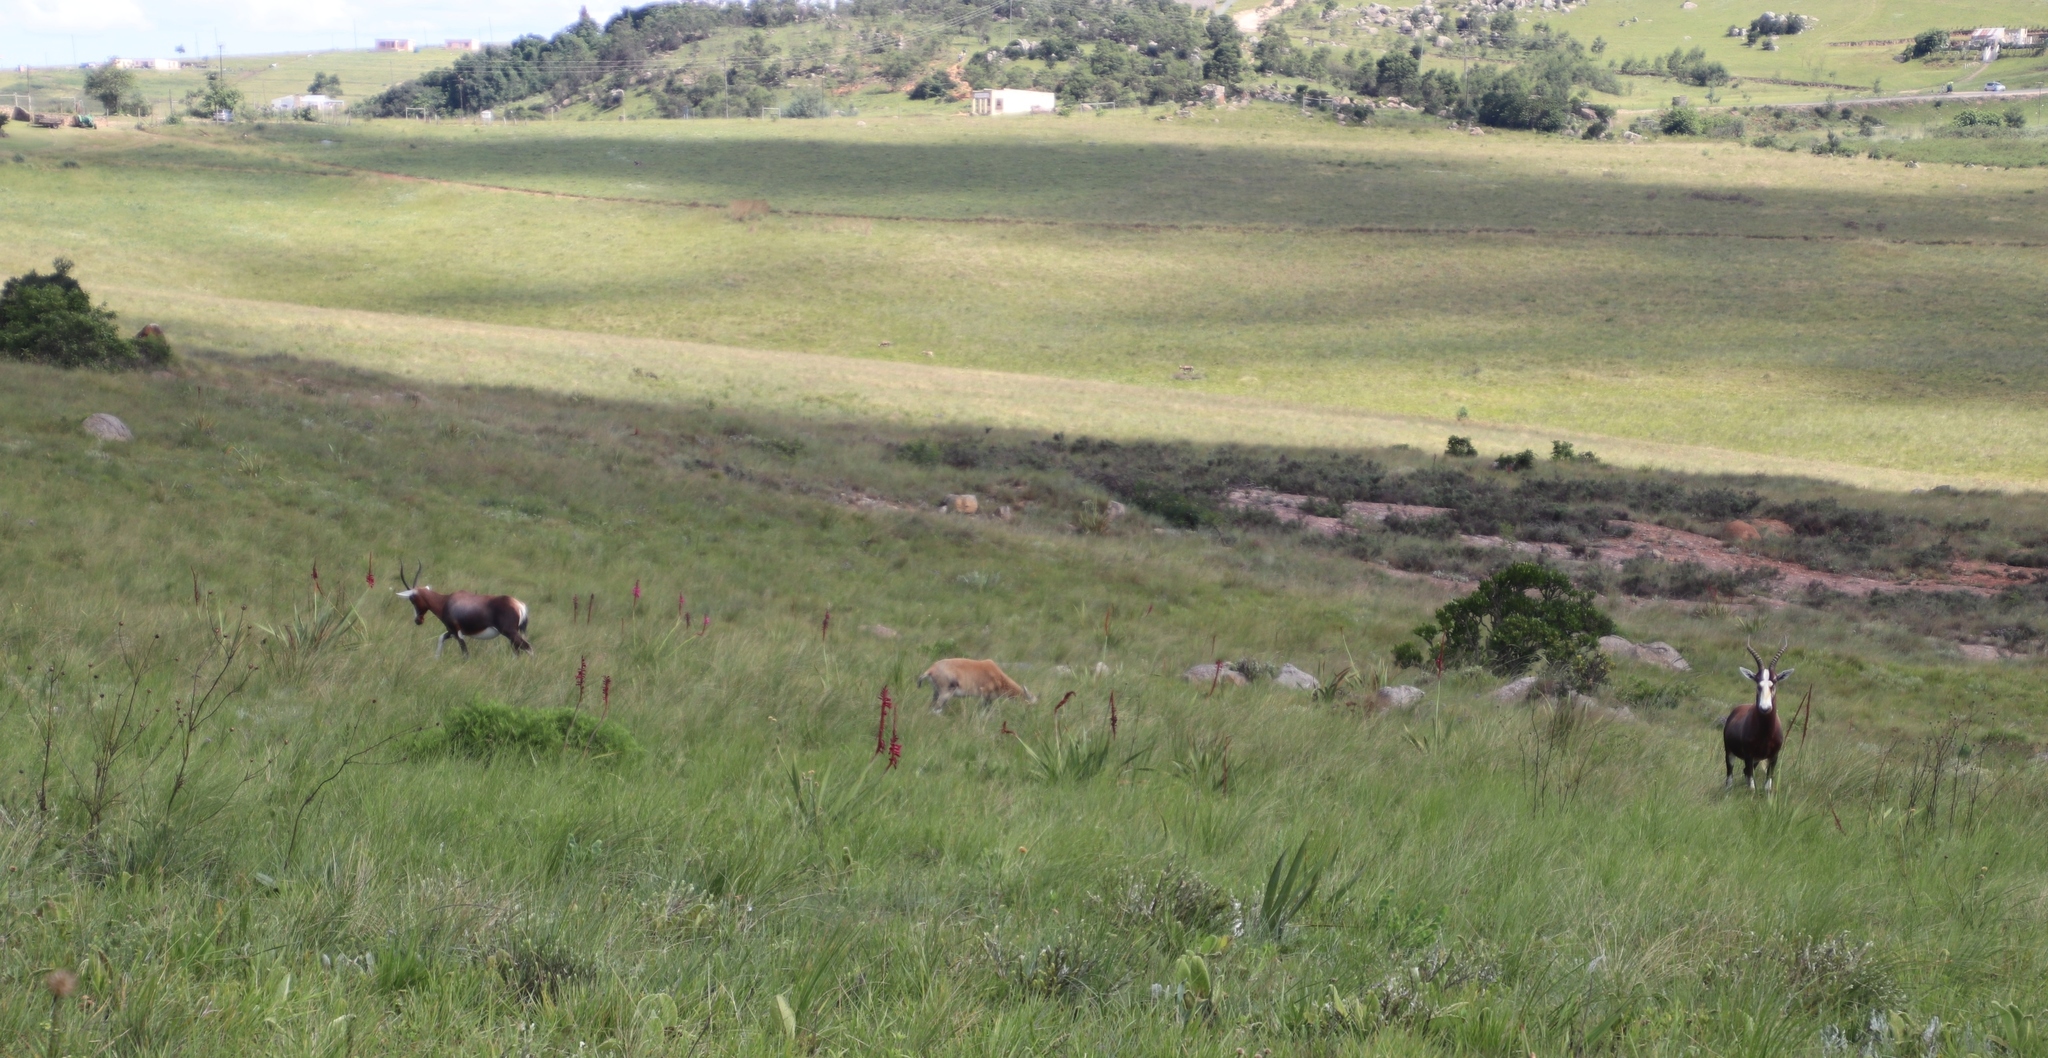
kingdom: Animalia
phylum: Chordata
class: Mammalia
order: Artiodactyla
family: Bovidae
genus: Damaliscus
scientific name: Damaliscus pygargus
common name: Bontebok
